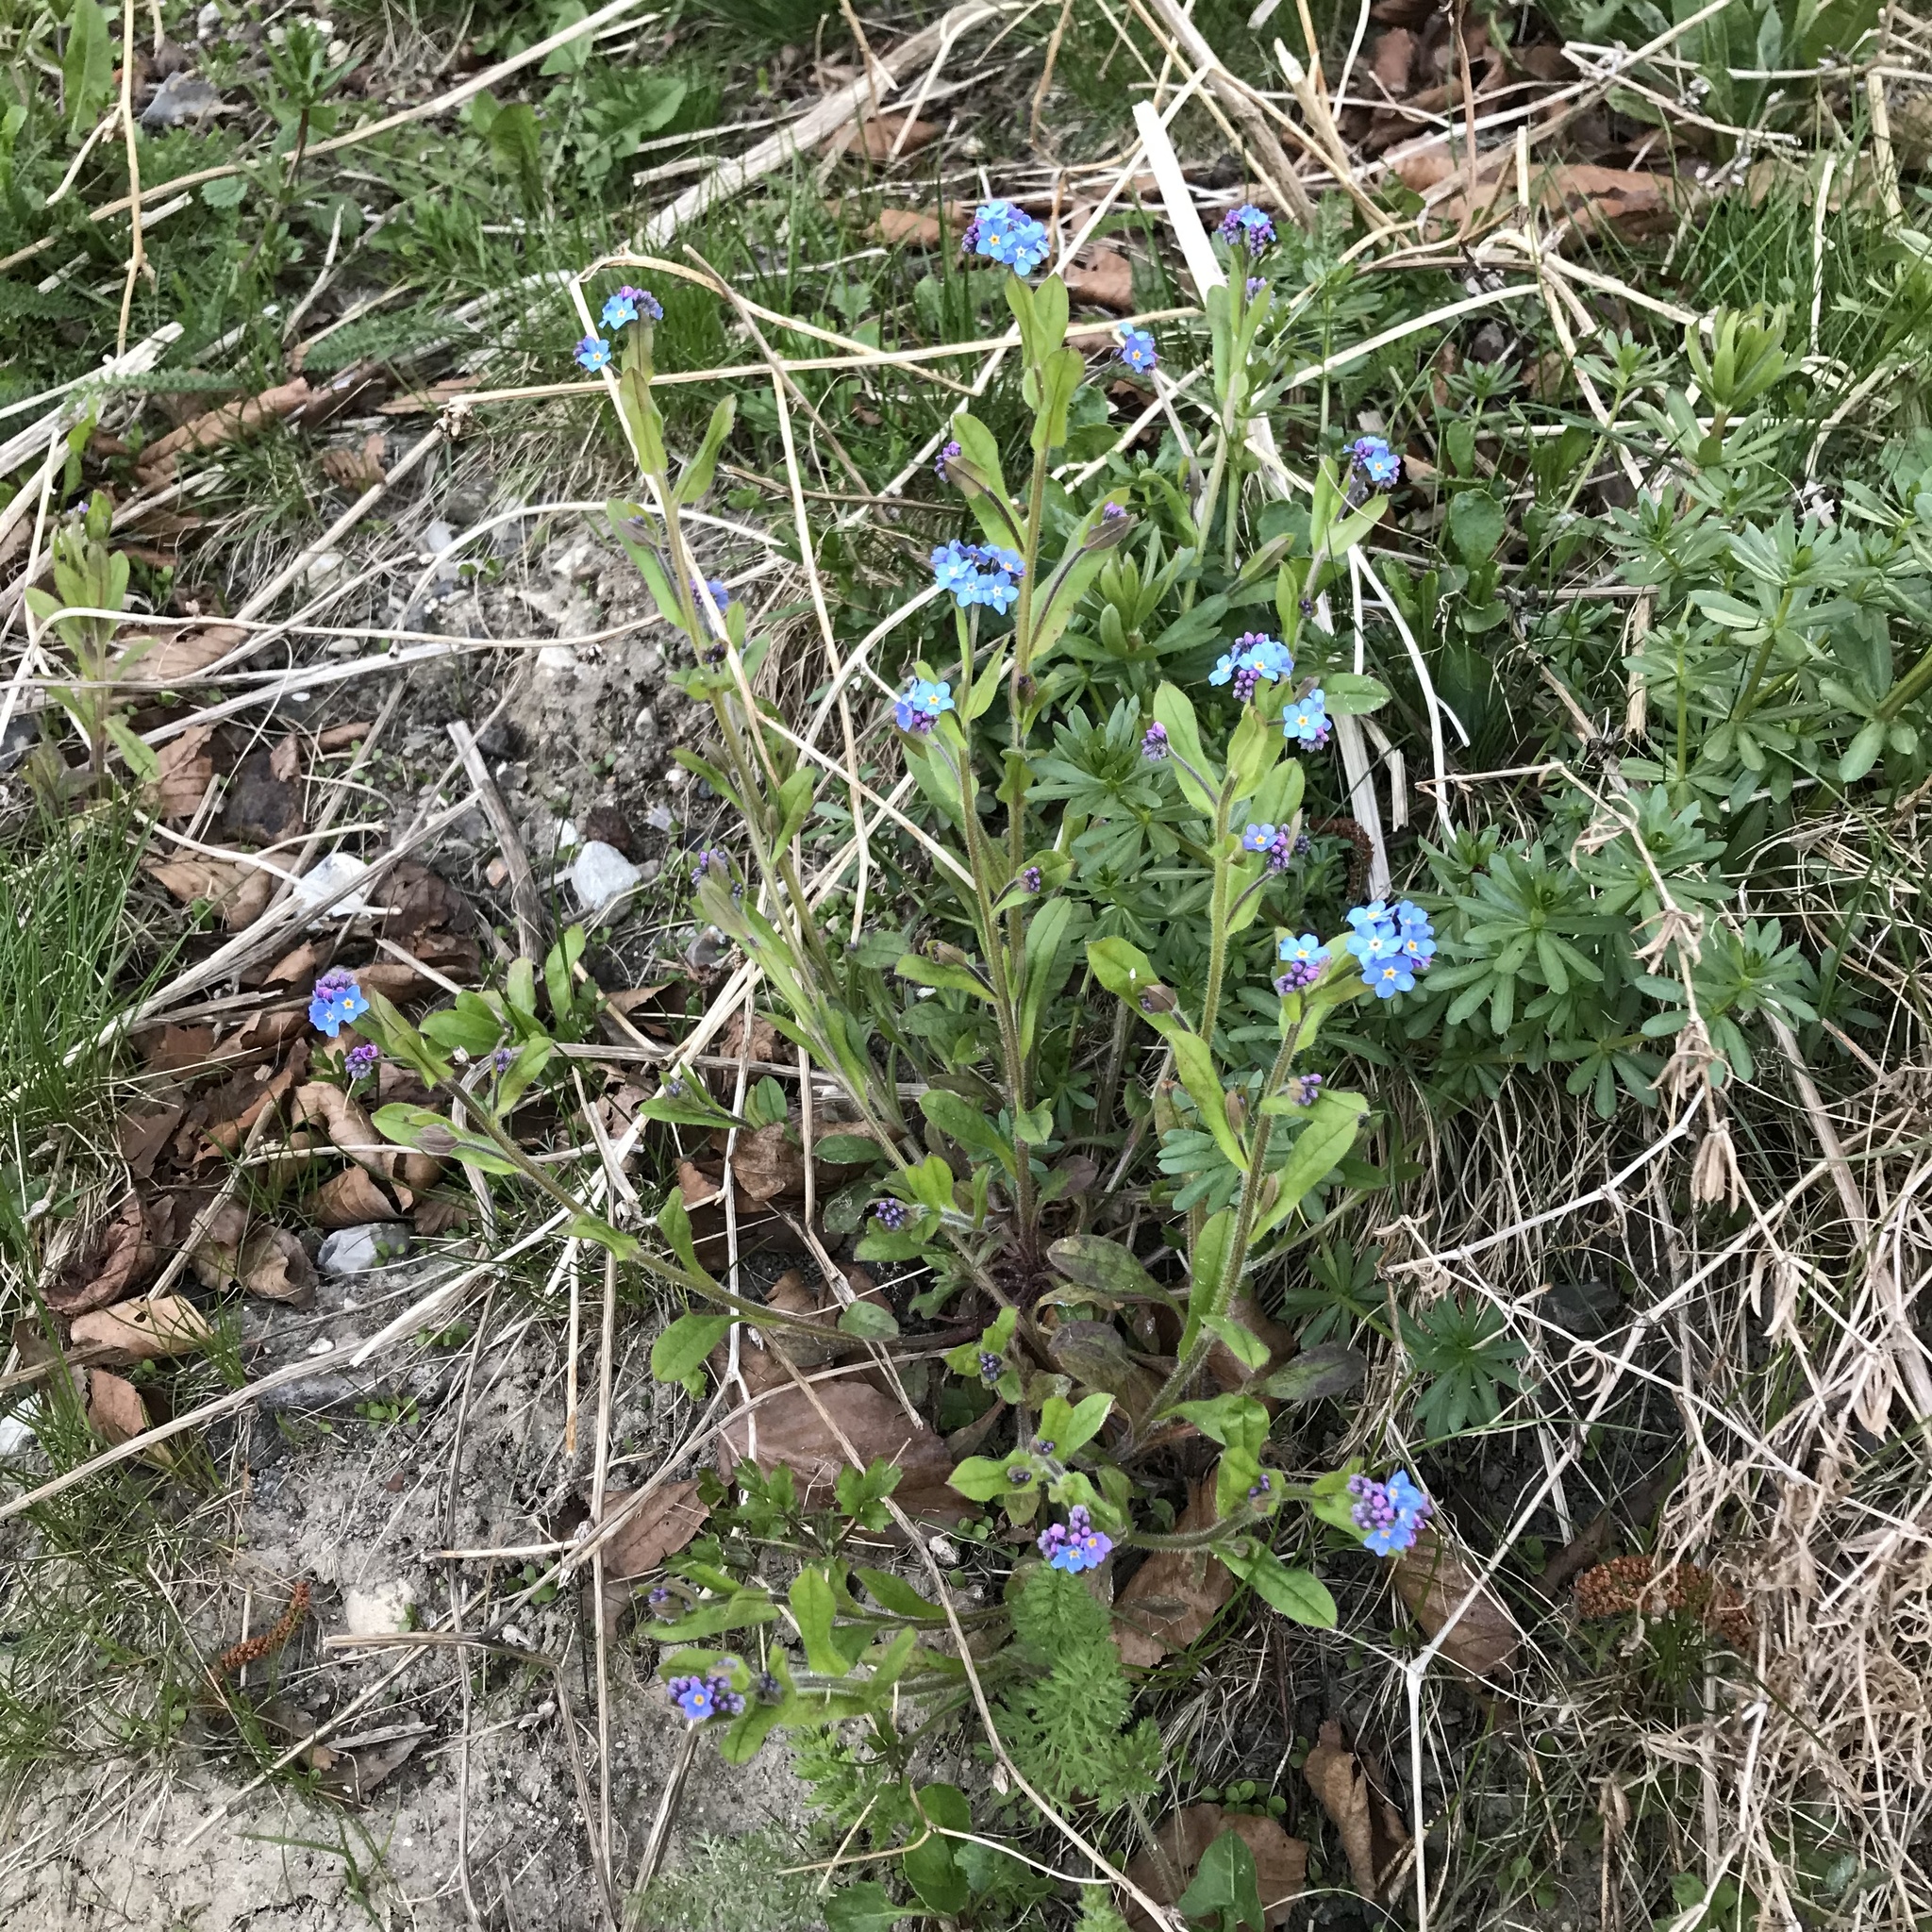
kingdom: Plantae
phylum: Tracheophyta
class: Magnoliopsida
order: Boraginales
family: Boraginaceae
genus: Myosotis
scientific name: Myosotis sylvatica
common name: Wood forget-me-not
